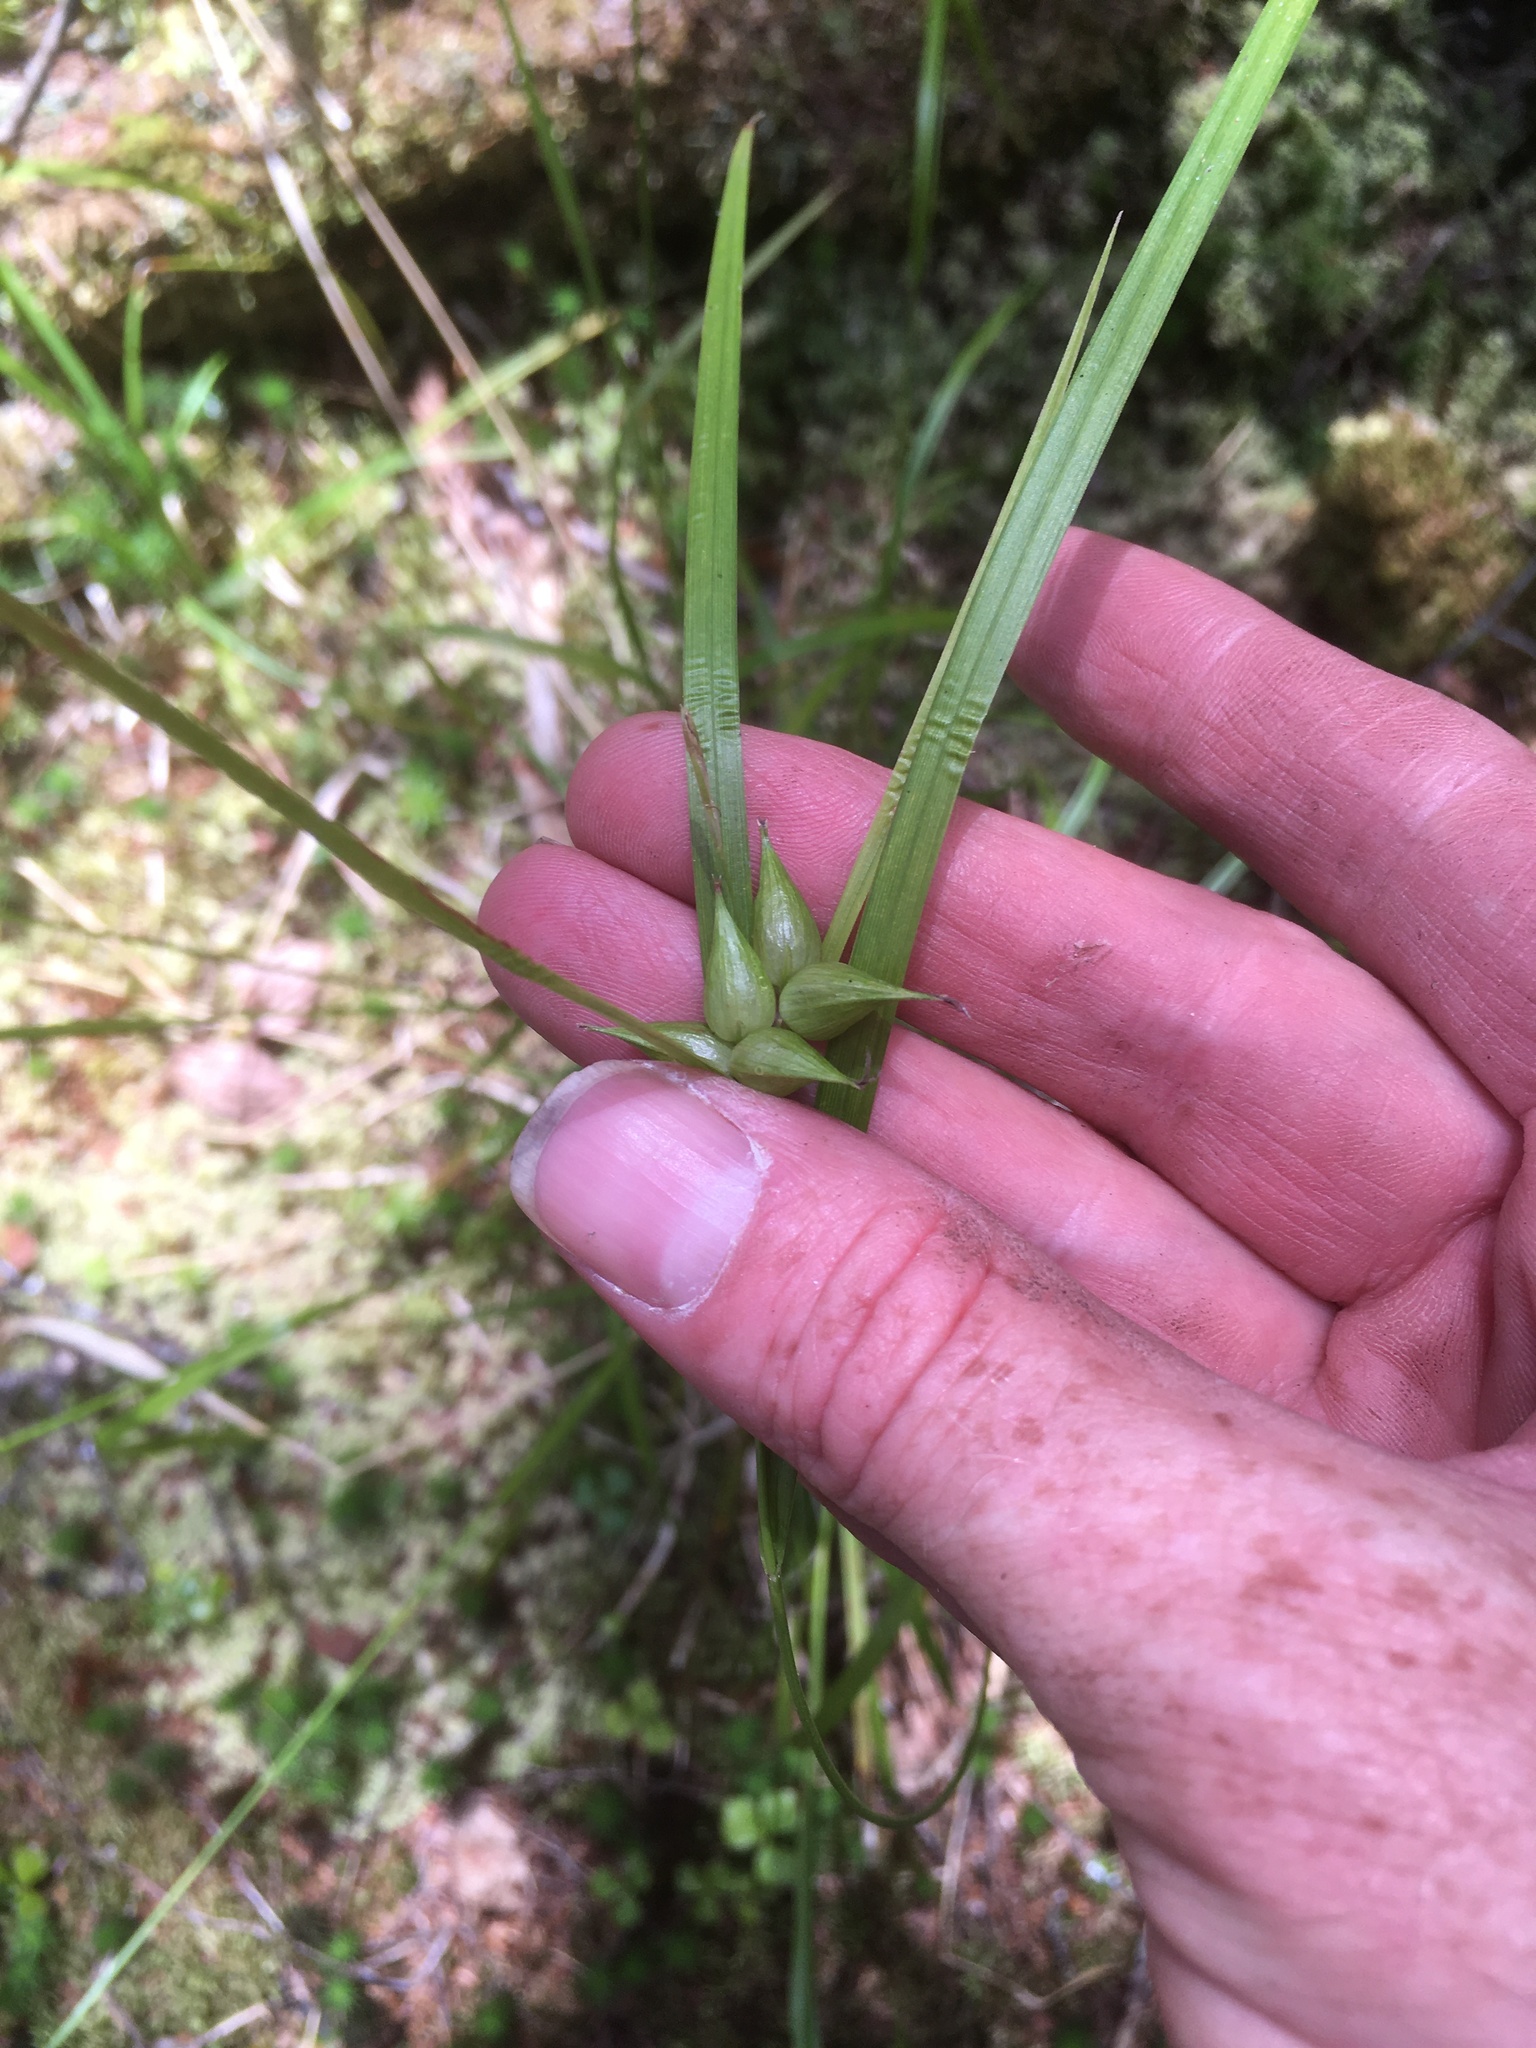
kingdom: Plantae
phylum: Tracheophyta
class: Liliopsida
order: Poales
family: Cyperaceae
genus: Carex
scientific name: Carex intumescens
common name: Greater bladder sedge
